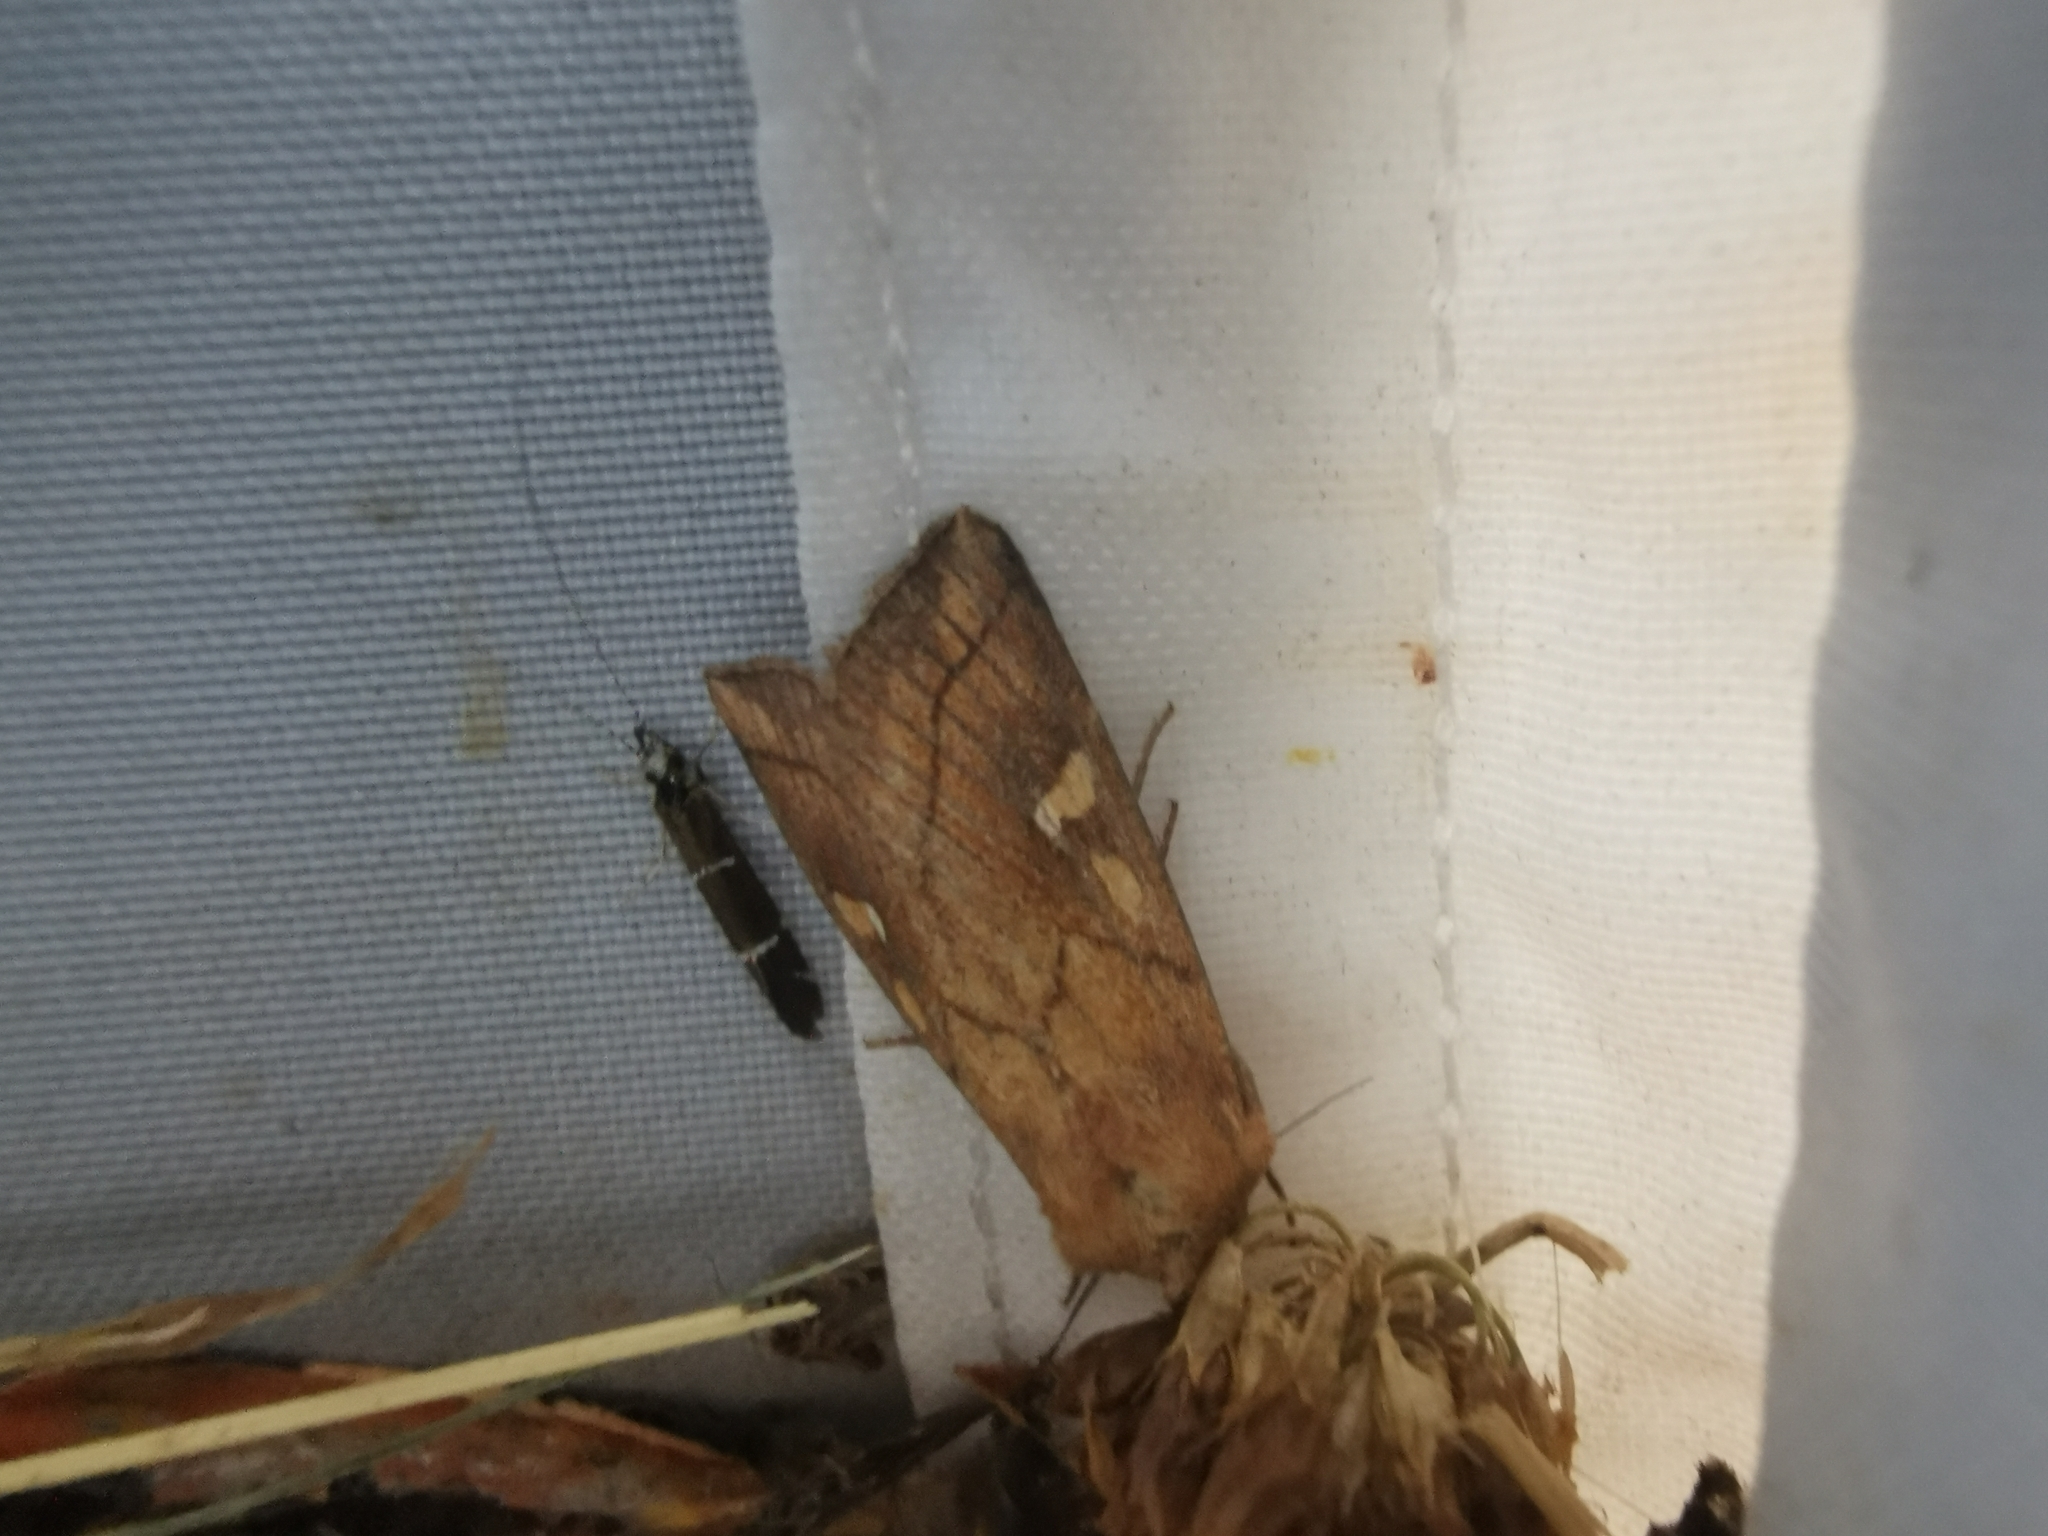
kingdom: Animalia
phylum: Arthropoda
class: Insecta
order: Lepidoptera
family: Noctuidae
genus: Mythimna
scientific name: Mythimna conigera
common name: Brown-line bright-eye
